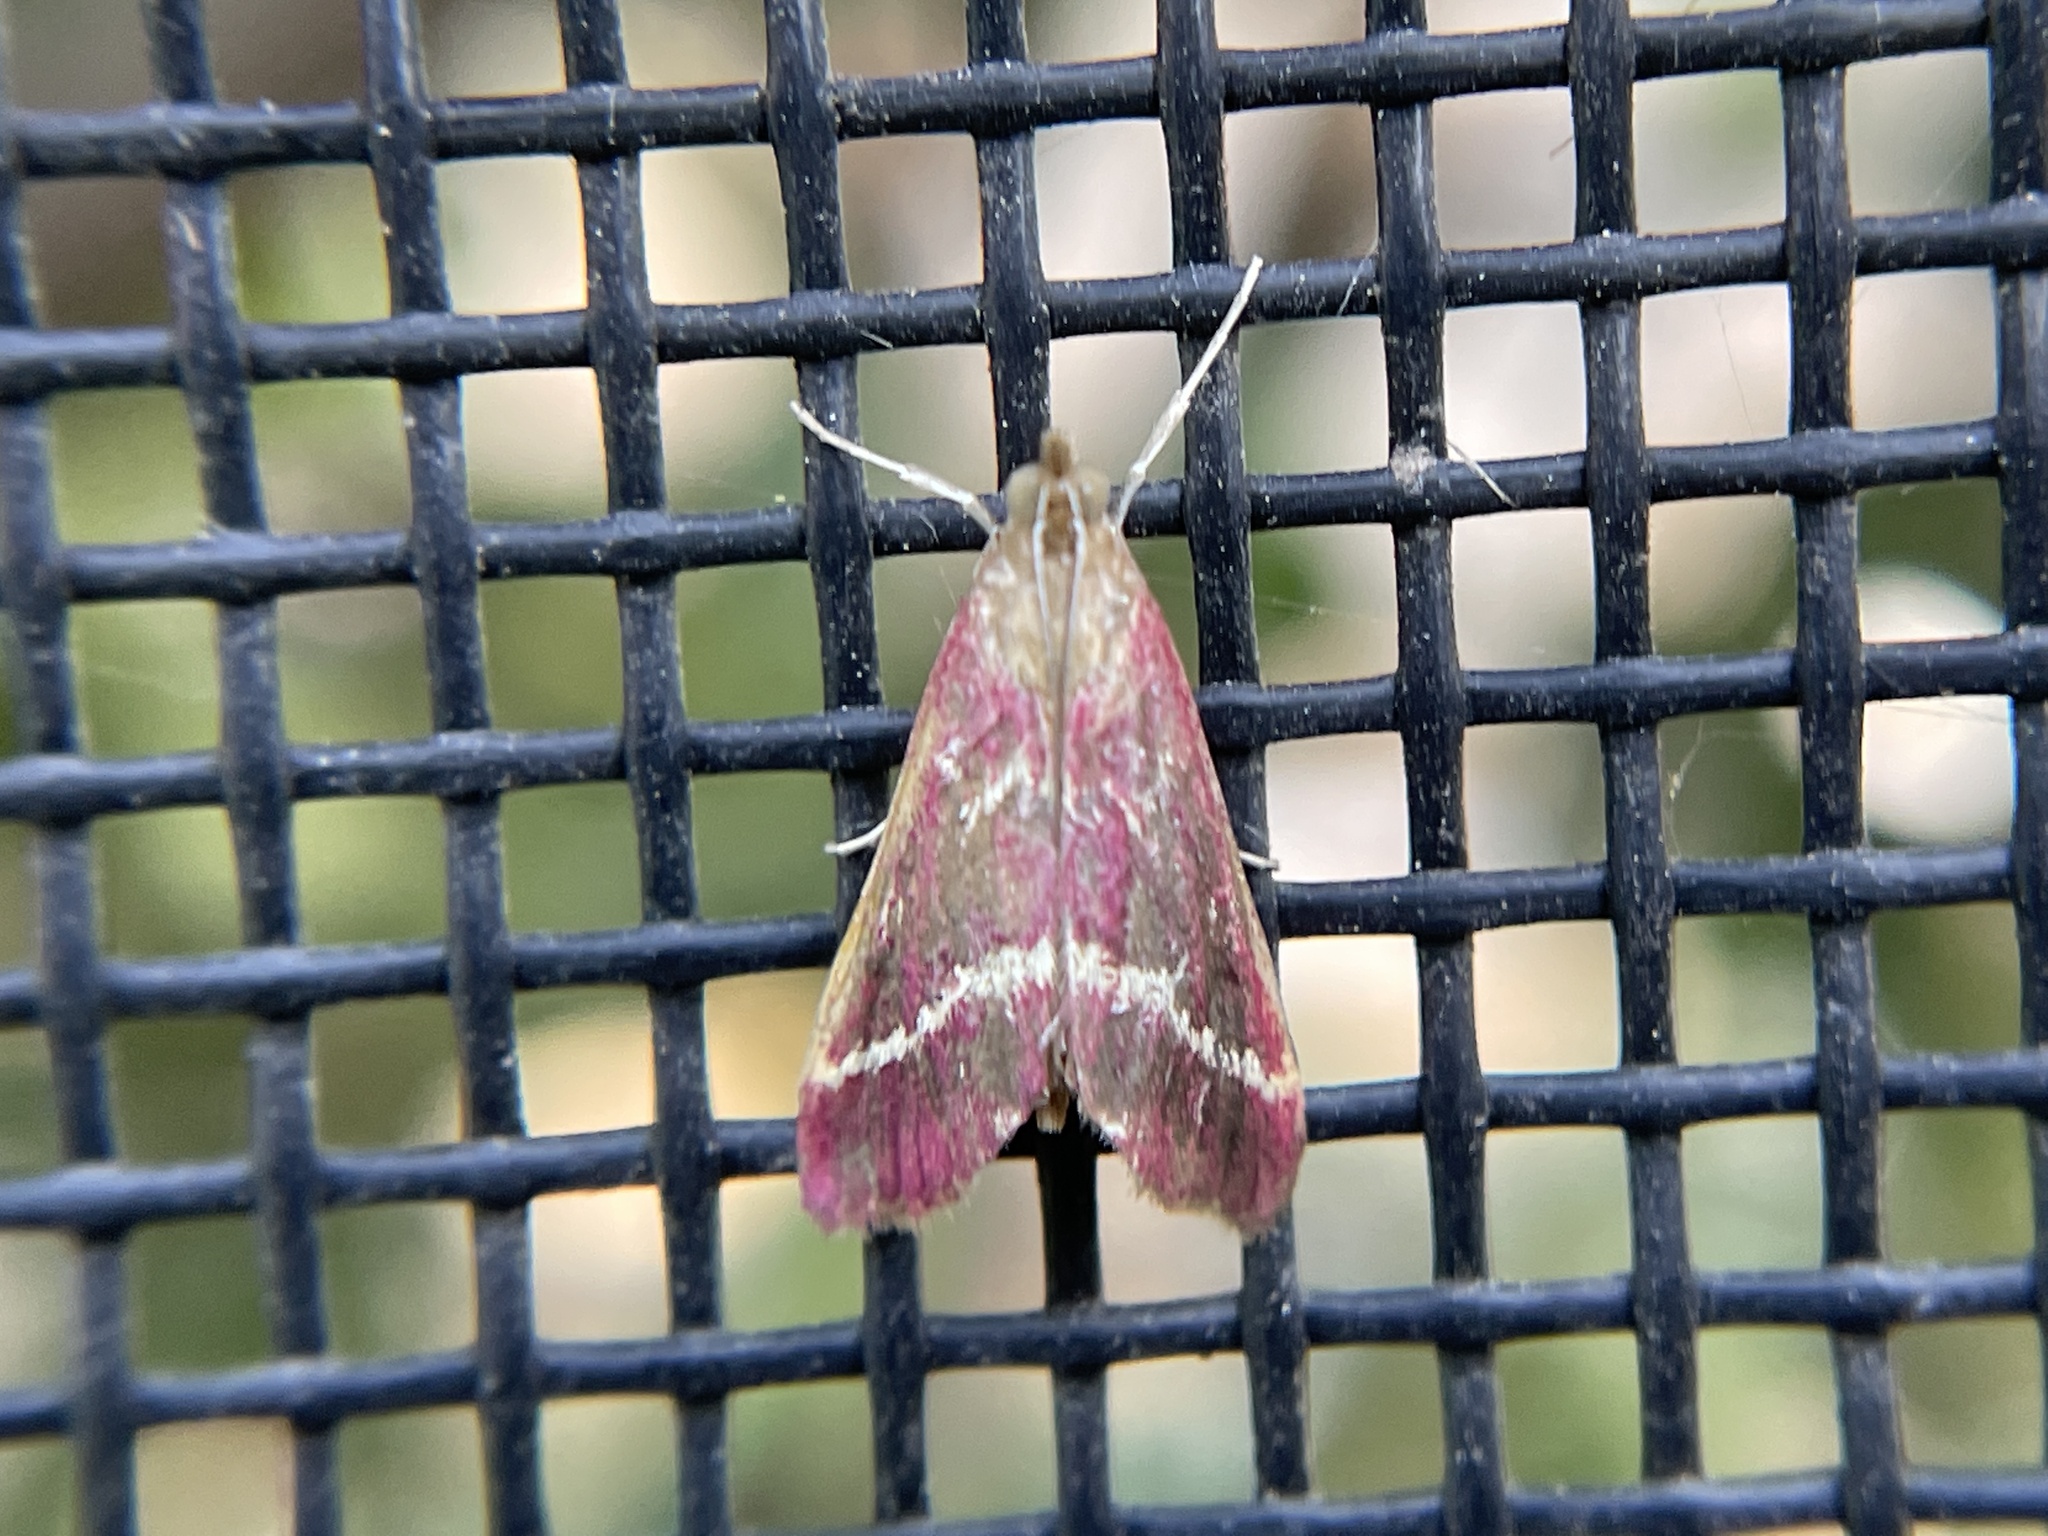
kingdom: Animalia
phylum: Arthropoda
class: Insecta
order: Lepidoptera
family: Crambidae
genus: Pyrausta
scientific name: Pyrausta volupialis
